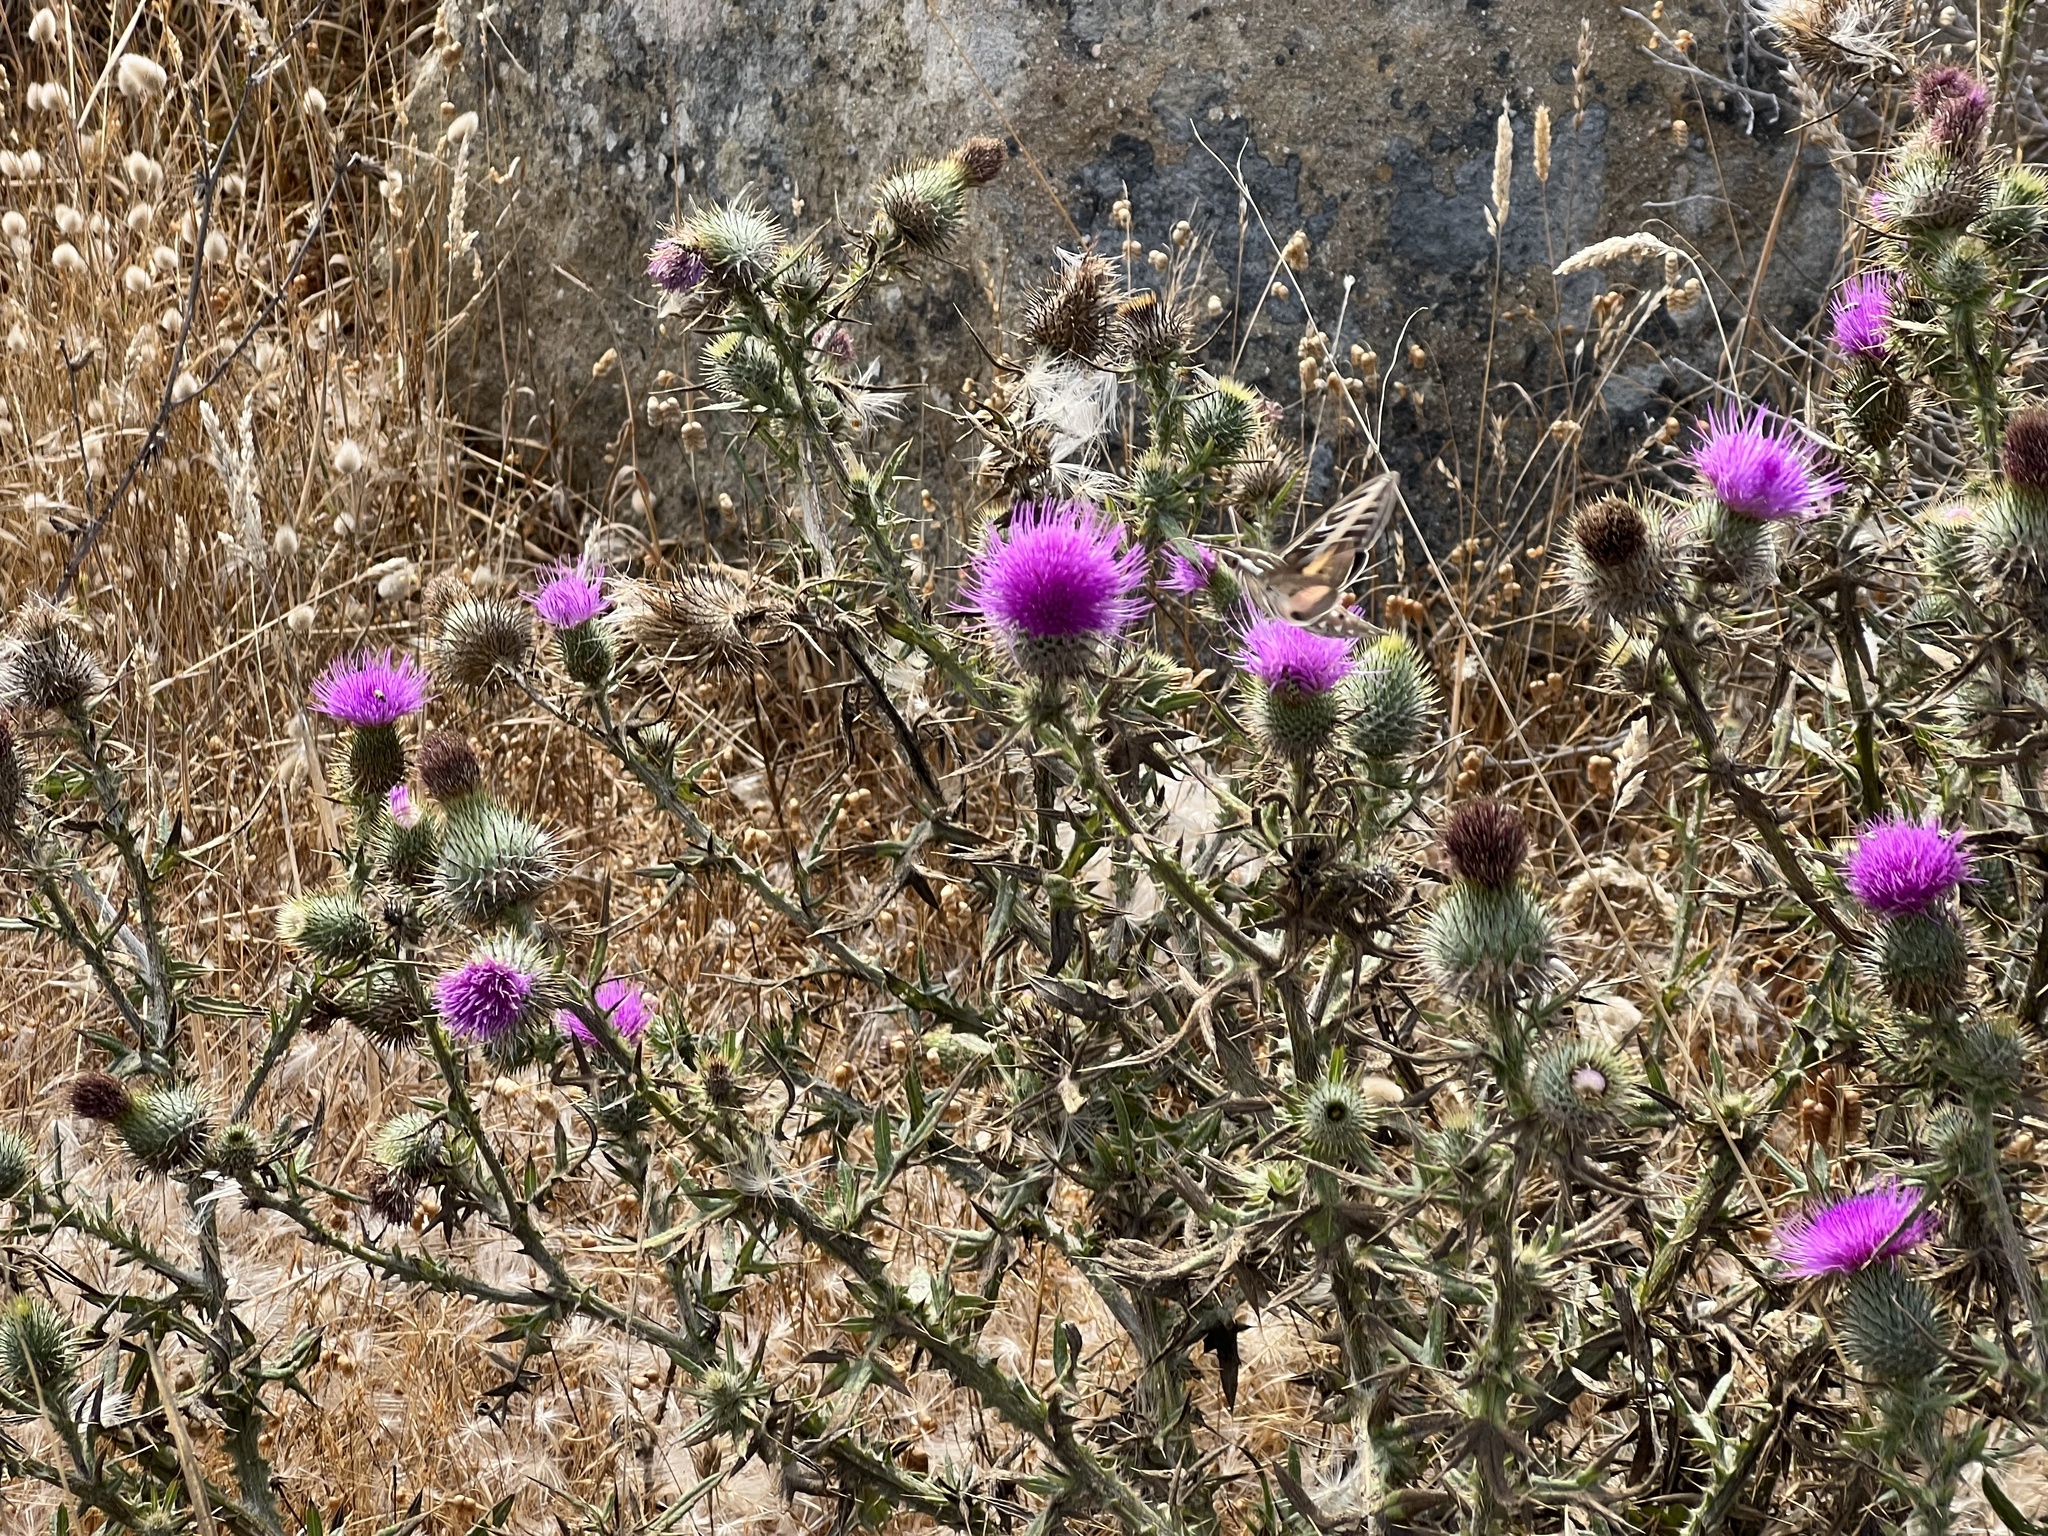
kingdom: Plantae
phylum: Tracheophyta
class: Magnoliopsida
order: Asterales
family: Asteraceae
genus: Cirsium
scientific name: Cirsium vulgare
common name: Bull thistle
